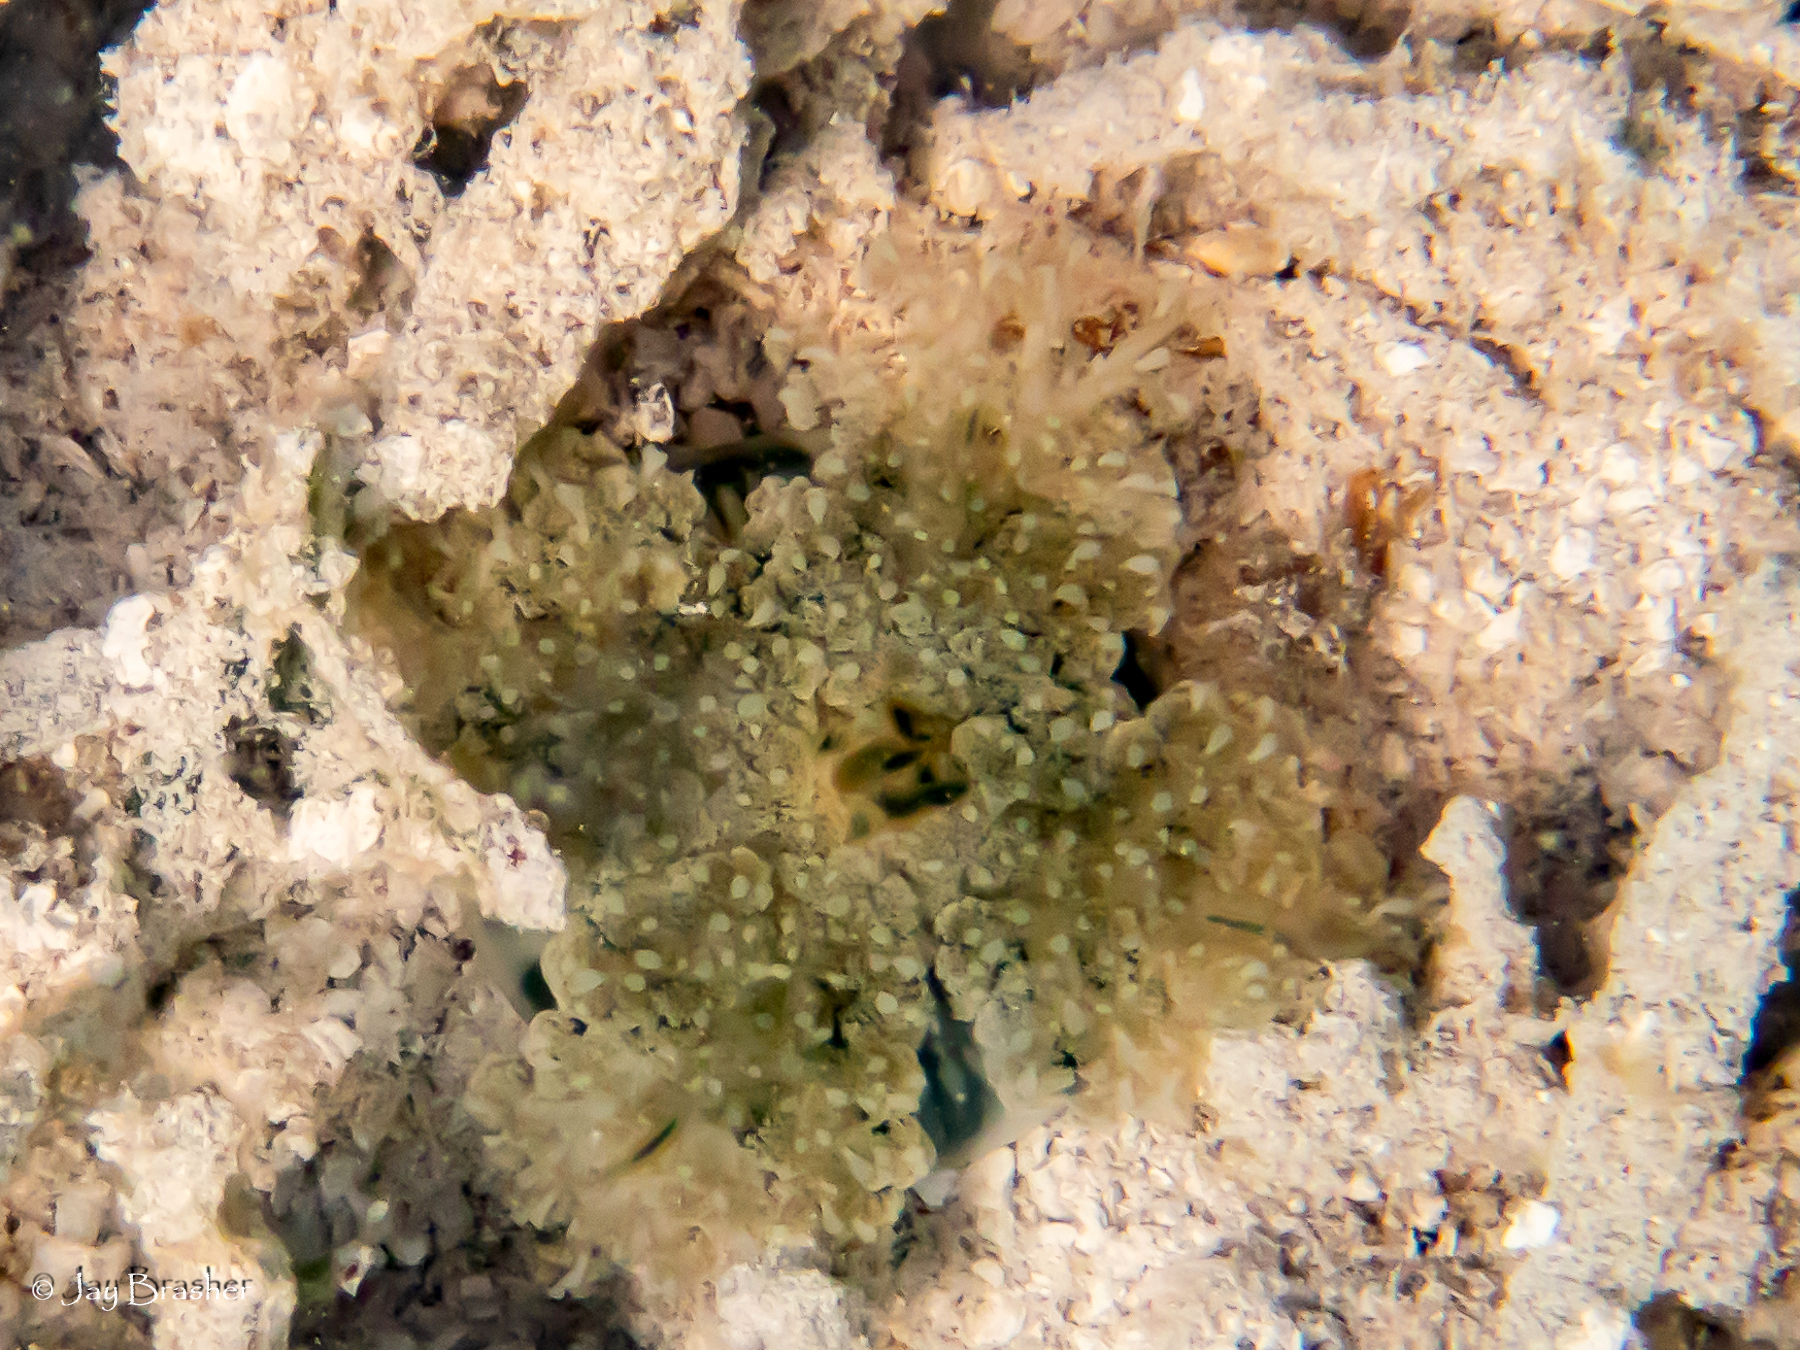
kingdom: Animalia
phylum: Cnidaria
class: Scyphozoa
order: Rhizostomeae
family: Cassiopeidae
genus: Cassiopea
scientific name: Cassiopea andromeda
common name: Upside-down jellyfish
